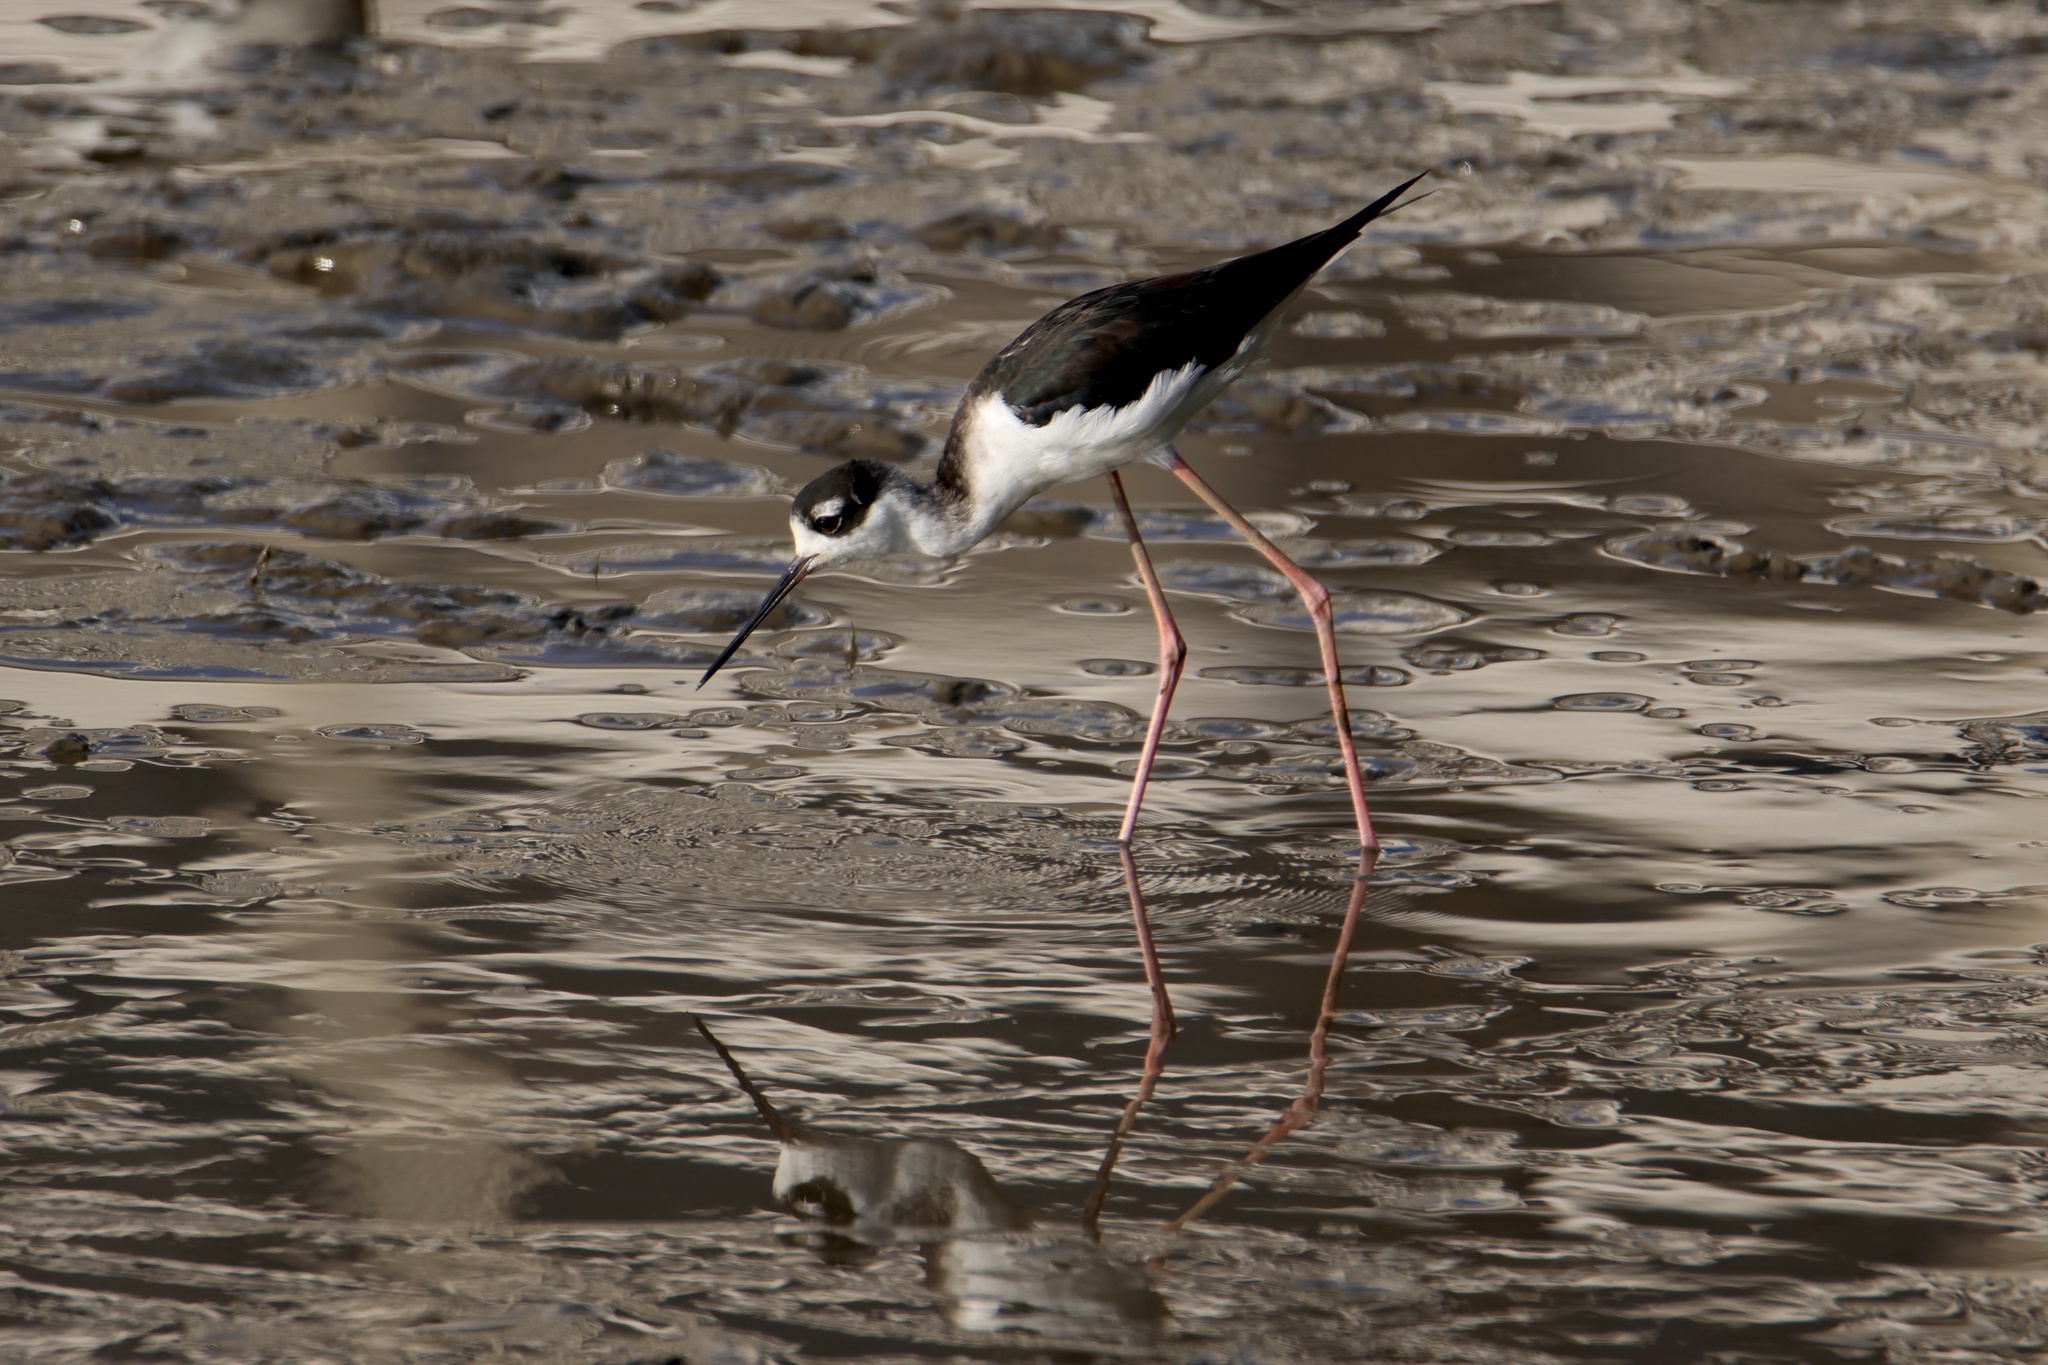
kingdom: Animalia
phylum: Chordata
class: Aves
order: Charadriiformes
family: Recurvirostridae
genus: Himantopus
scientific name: Himantopus mexicanus
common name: Black-necked stilt
